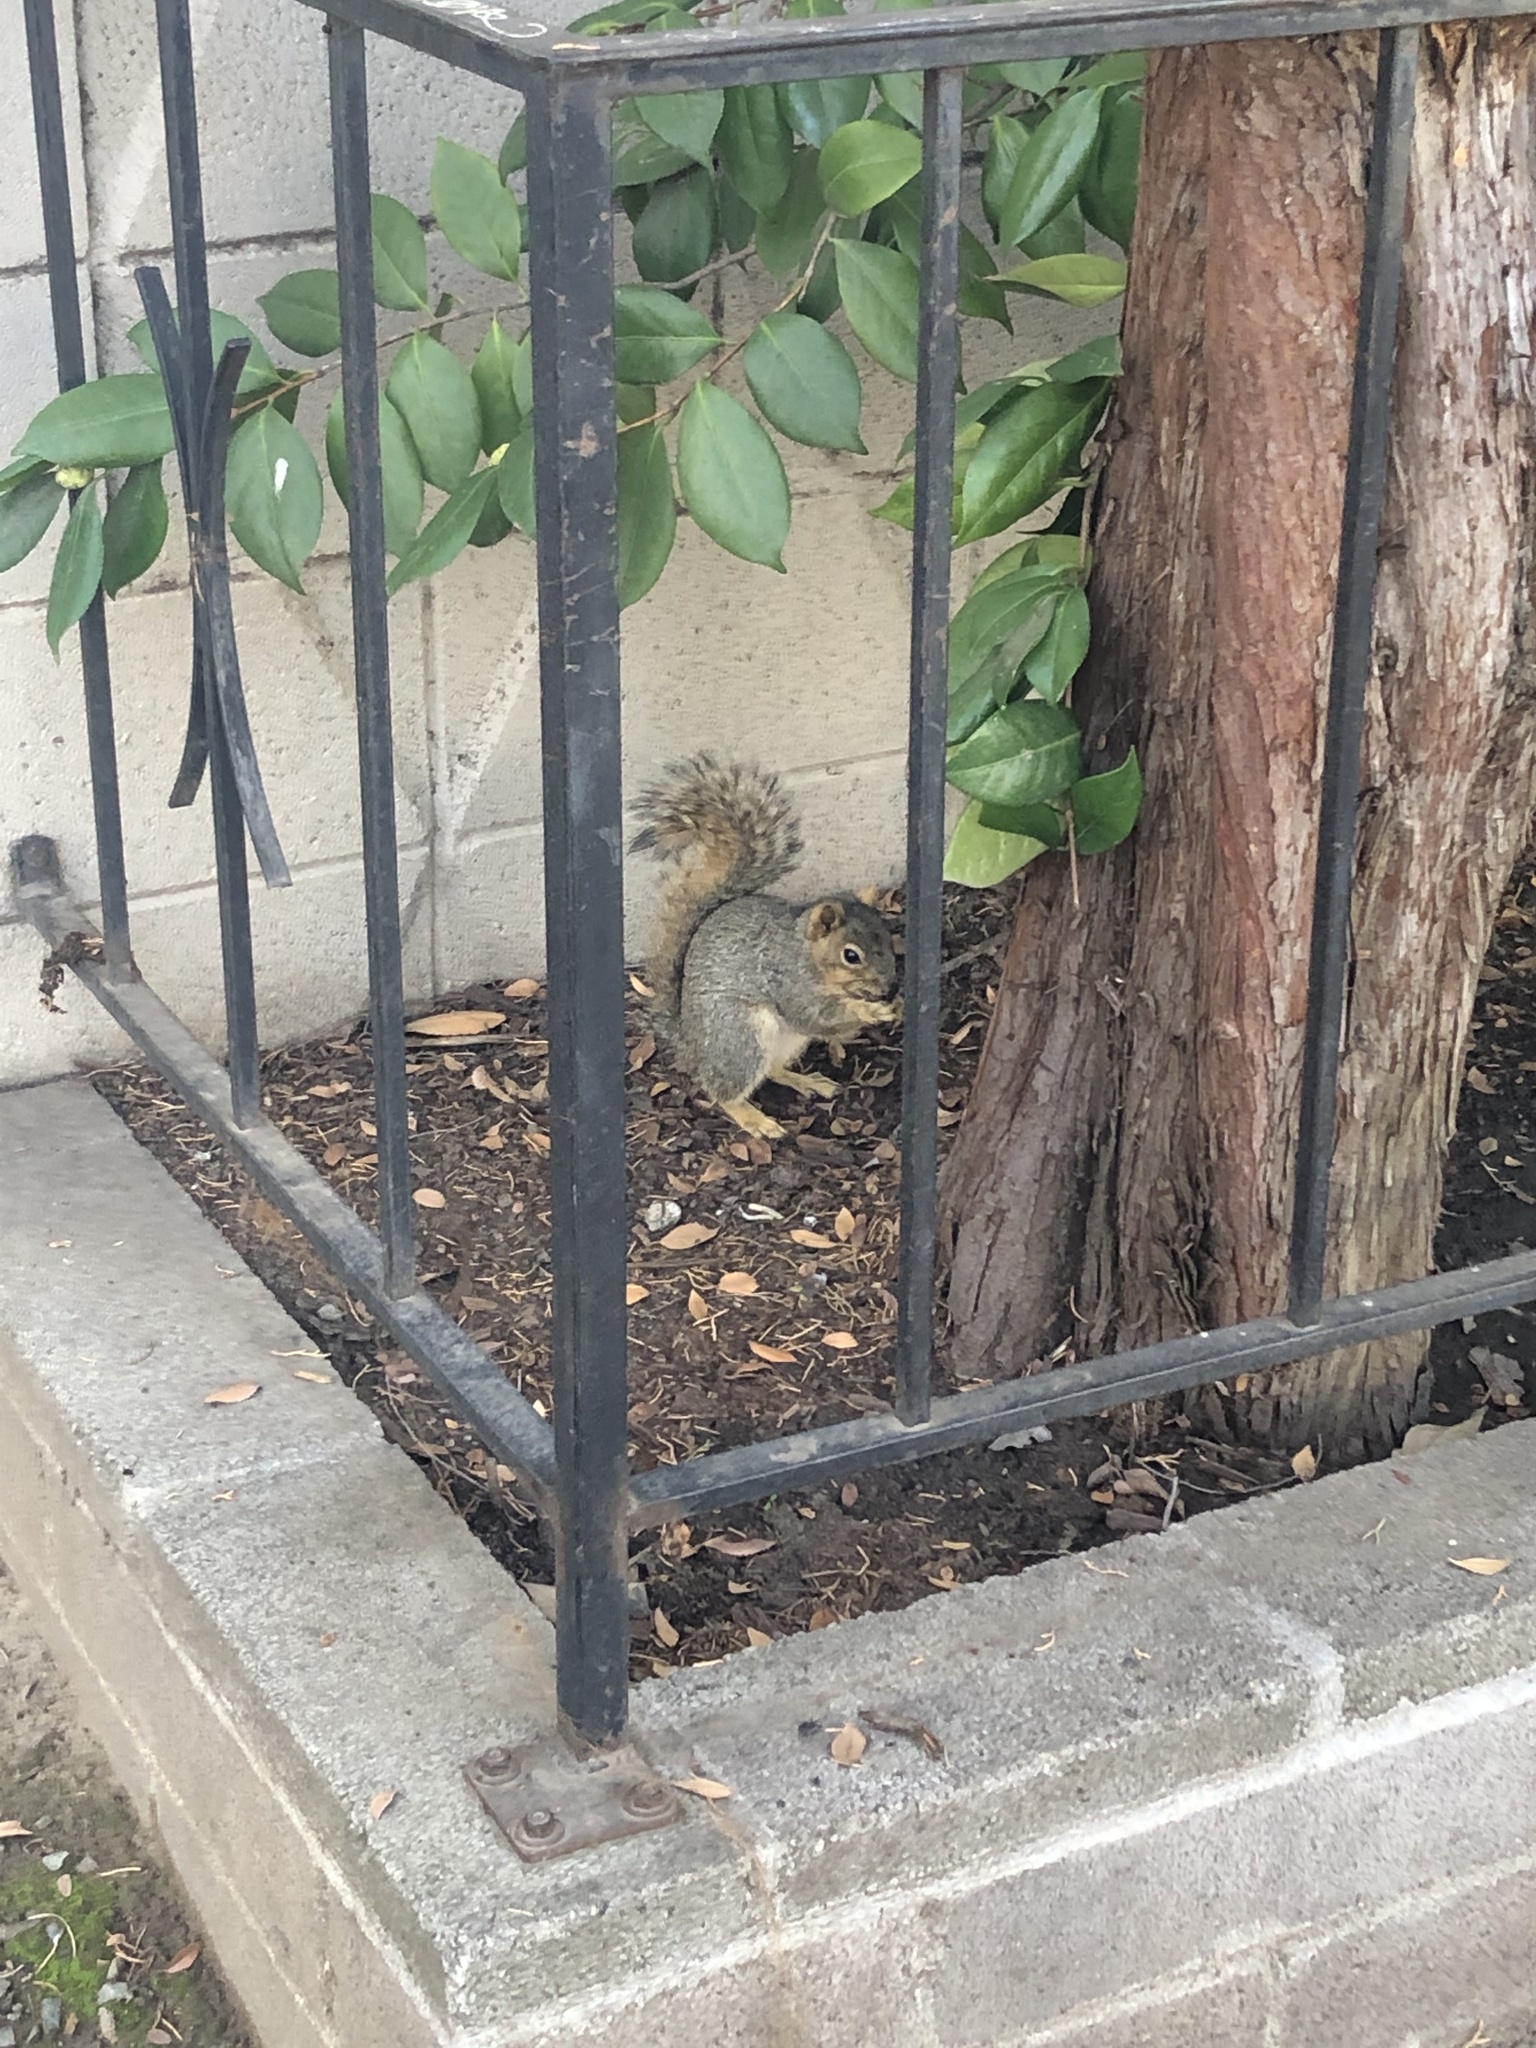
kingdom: Animalia
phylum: Chordata
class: Mammalia
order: Rodentia
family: Sciuridae
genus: Sciurus
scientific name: Sciurus niger
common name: Fox squirrel
